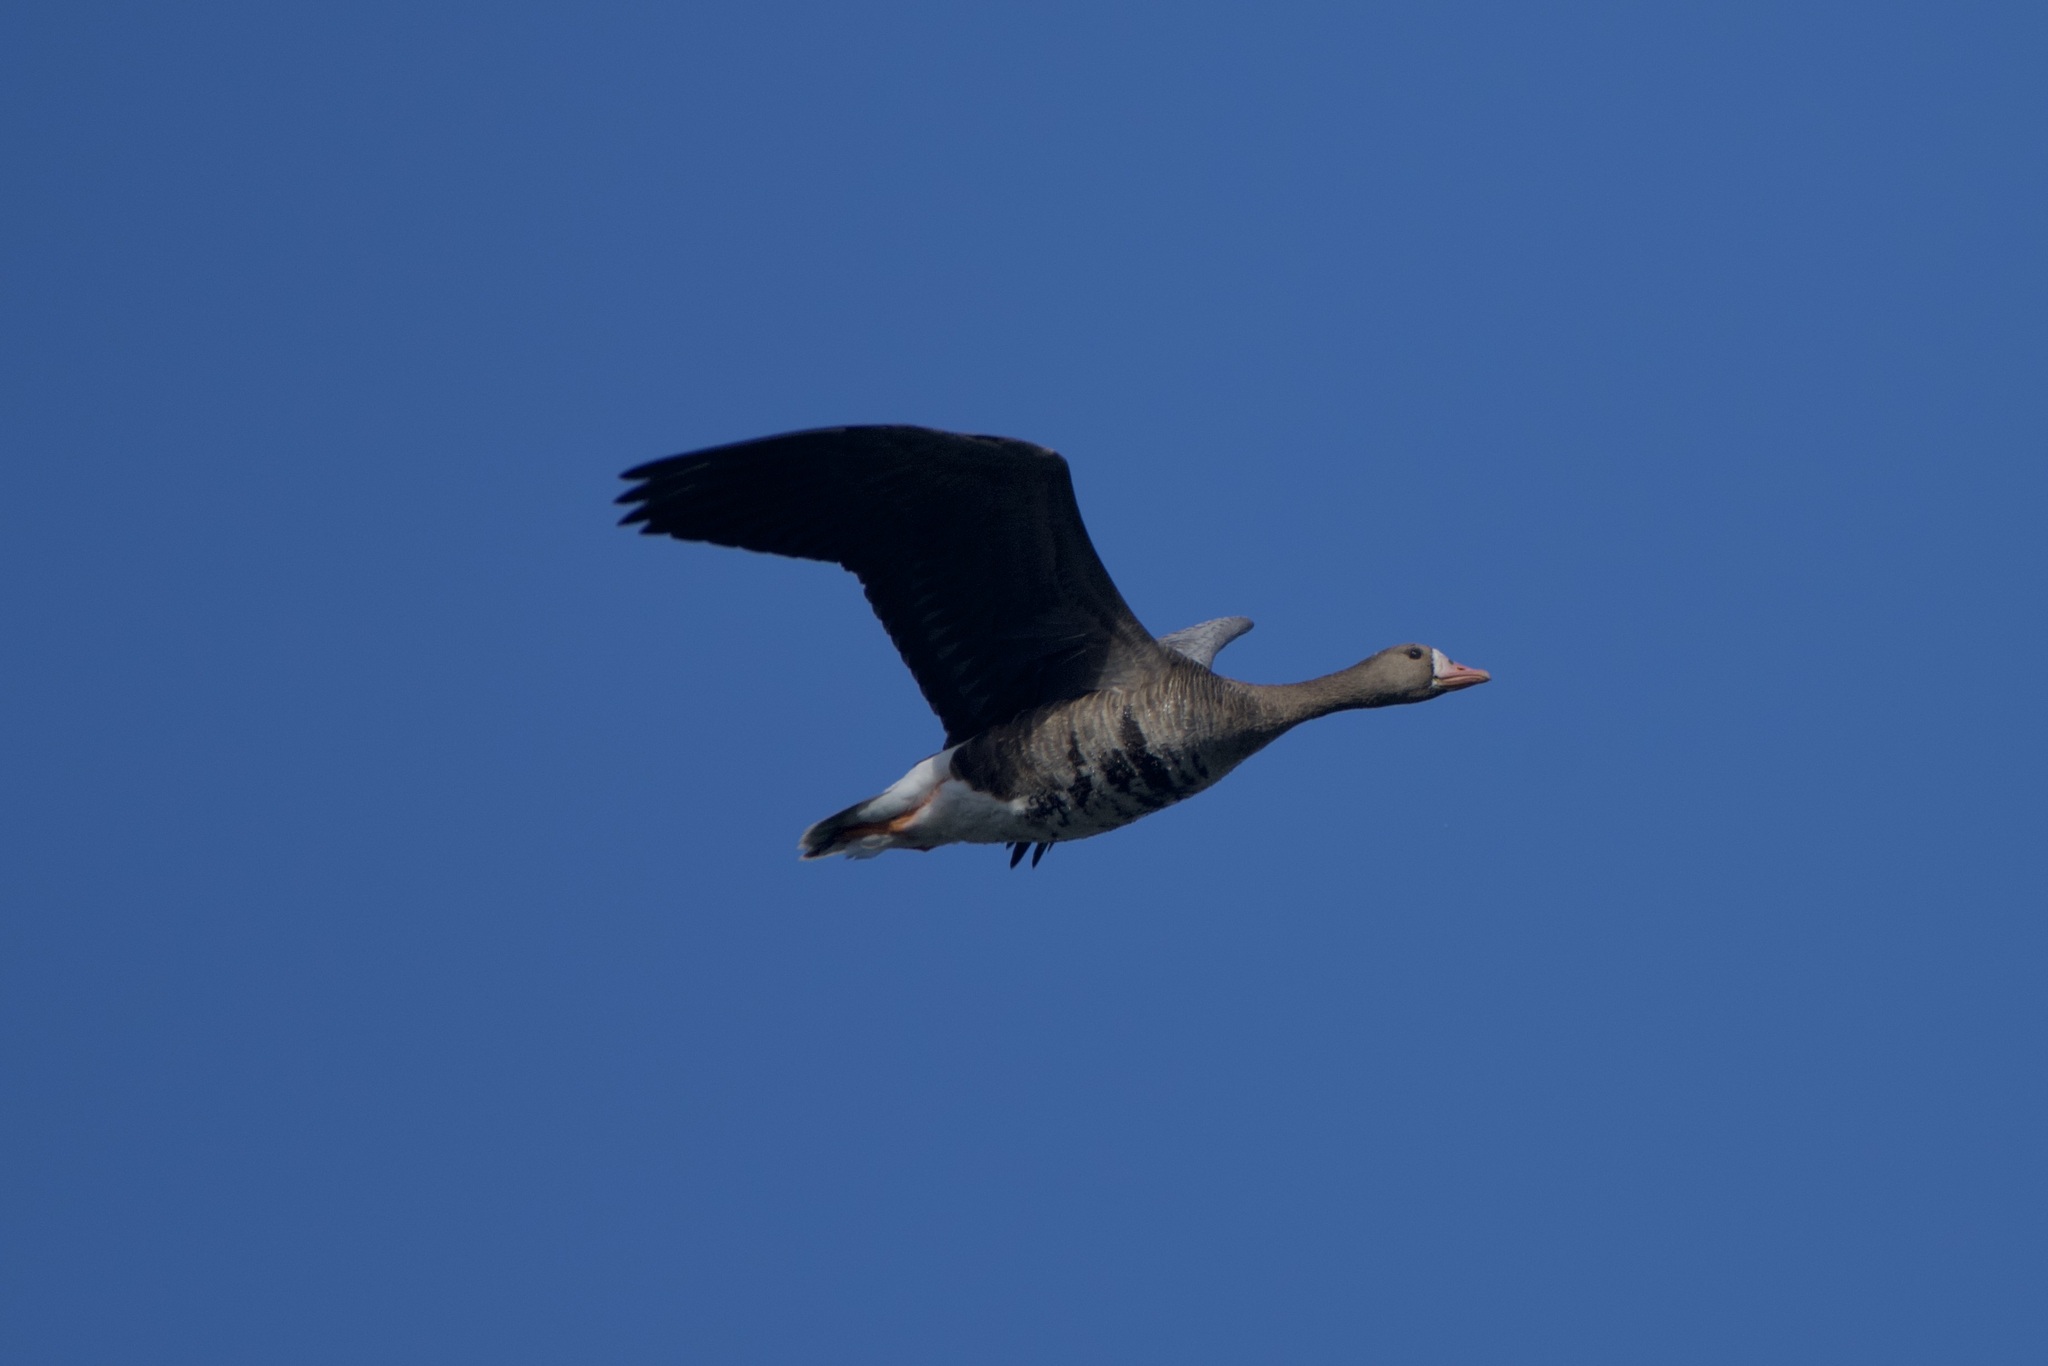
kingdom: Animalia
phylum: Chordata
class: Aves
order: Anseriformes
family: Anatidae
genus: Anser
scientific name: Anser albifrons
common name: Greater white-fronted goose
